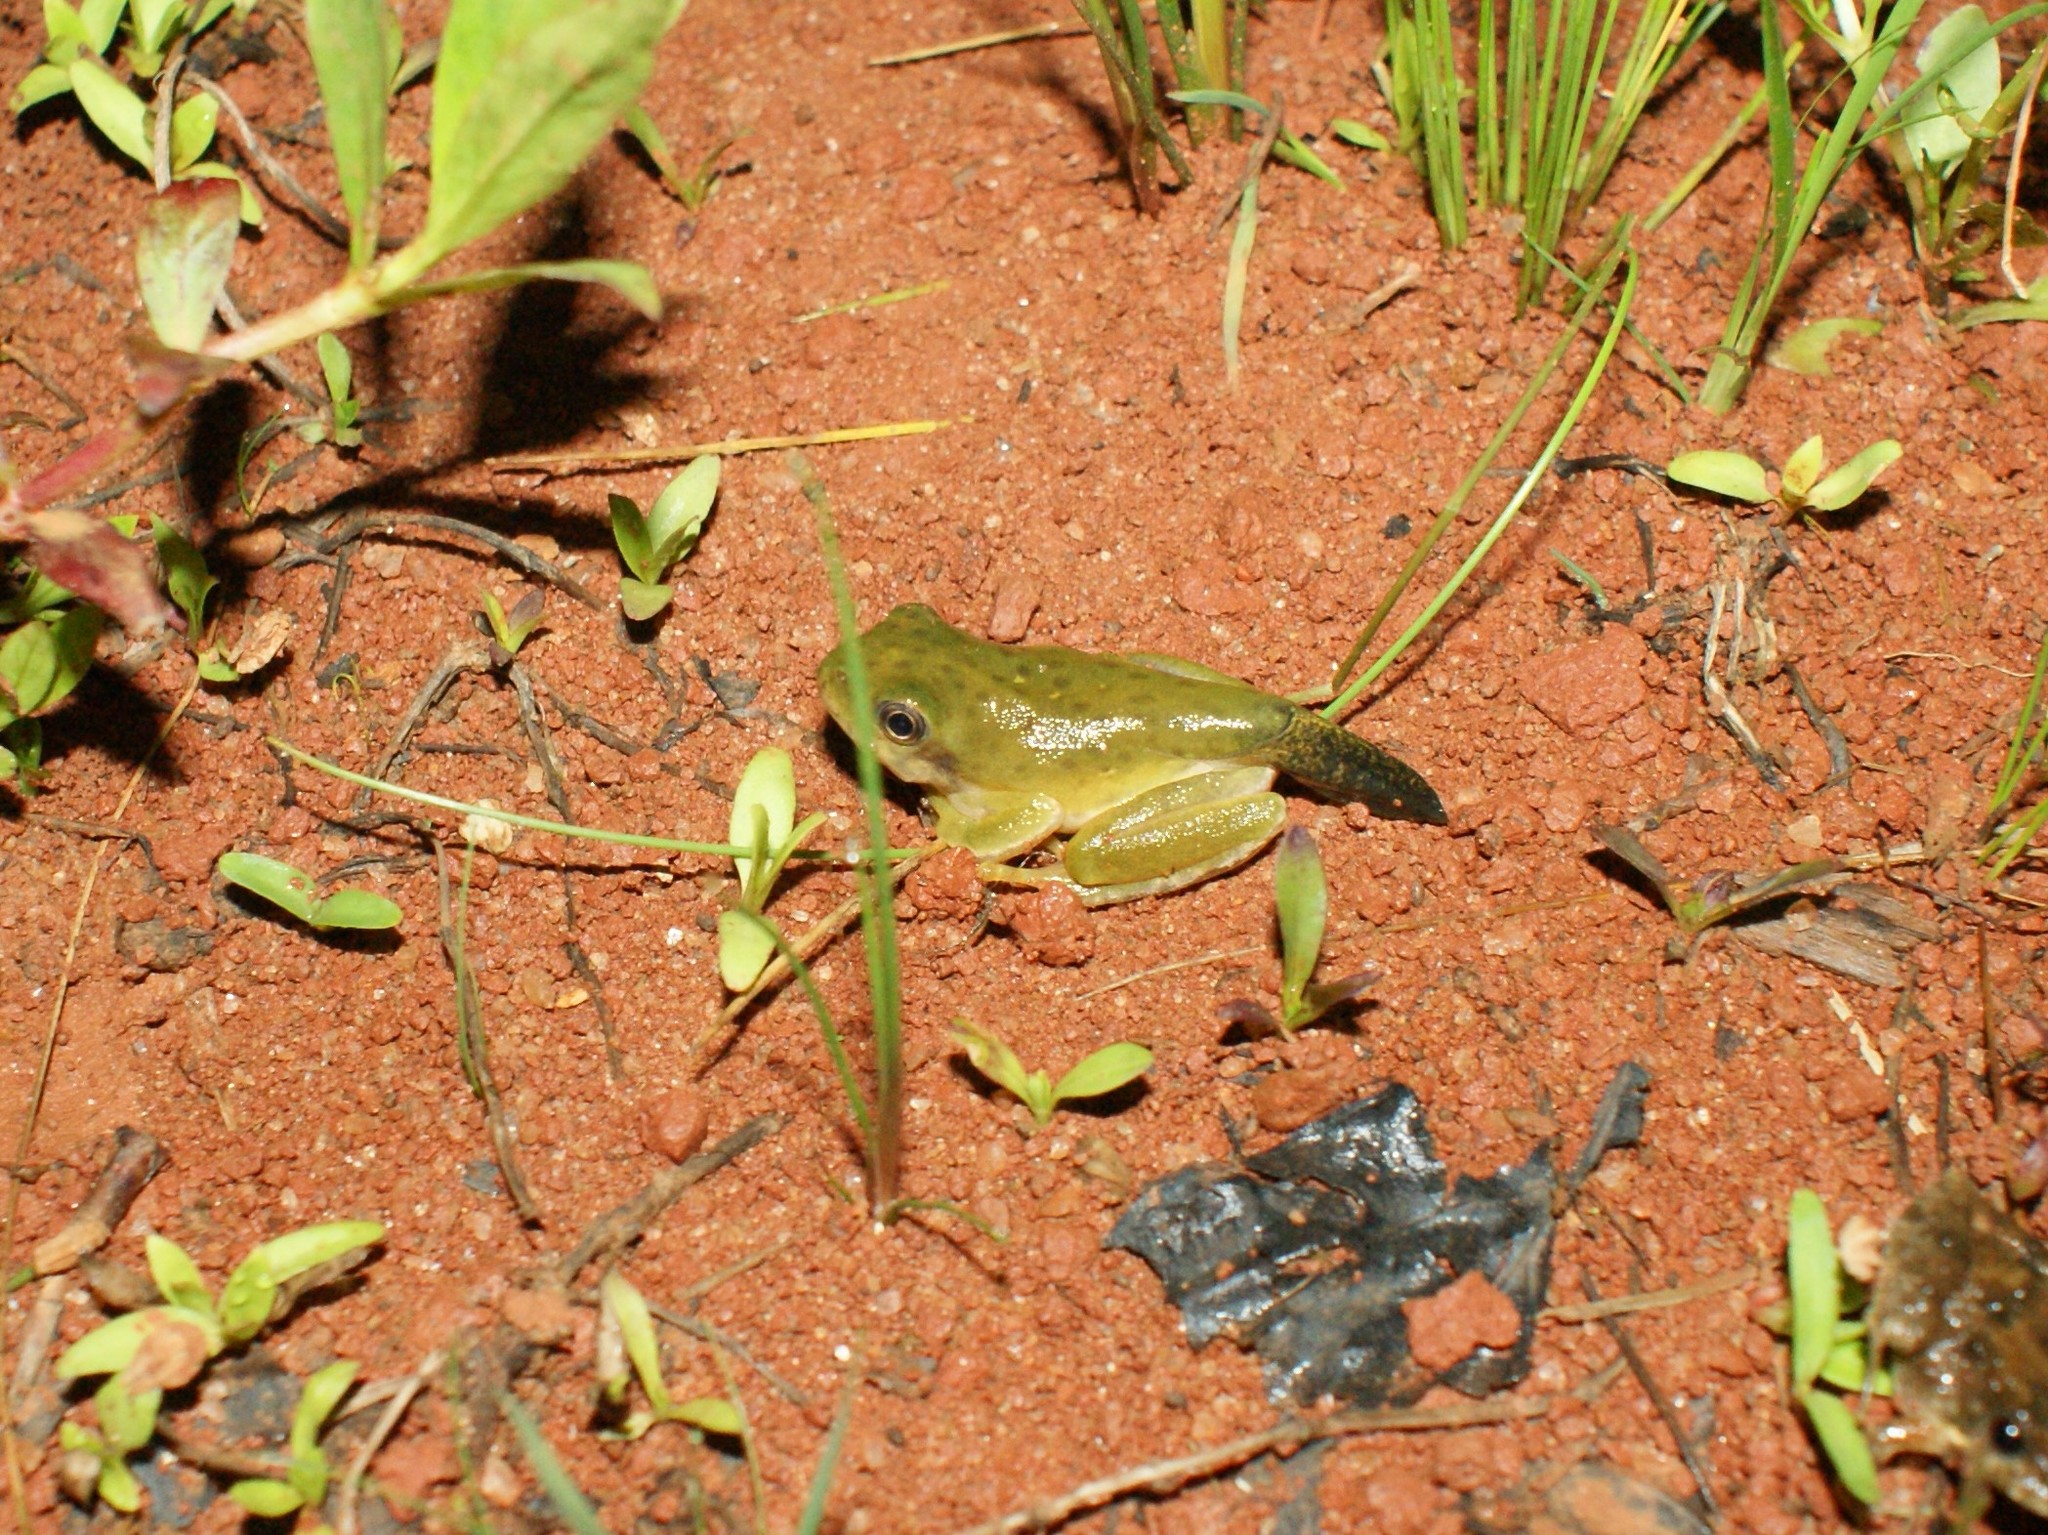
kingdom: Animalia
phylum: Chordata
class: Amphibia
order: Anura
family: Hylidae
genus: Dryophytes
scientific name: Dryophytes gratiosus
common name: Barking treefrog
